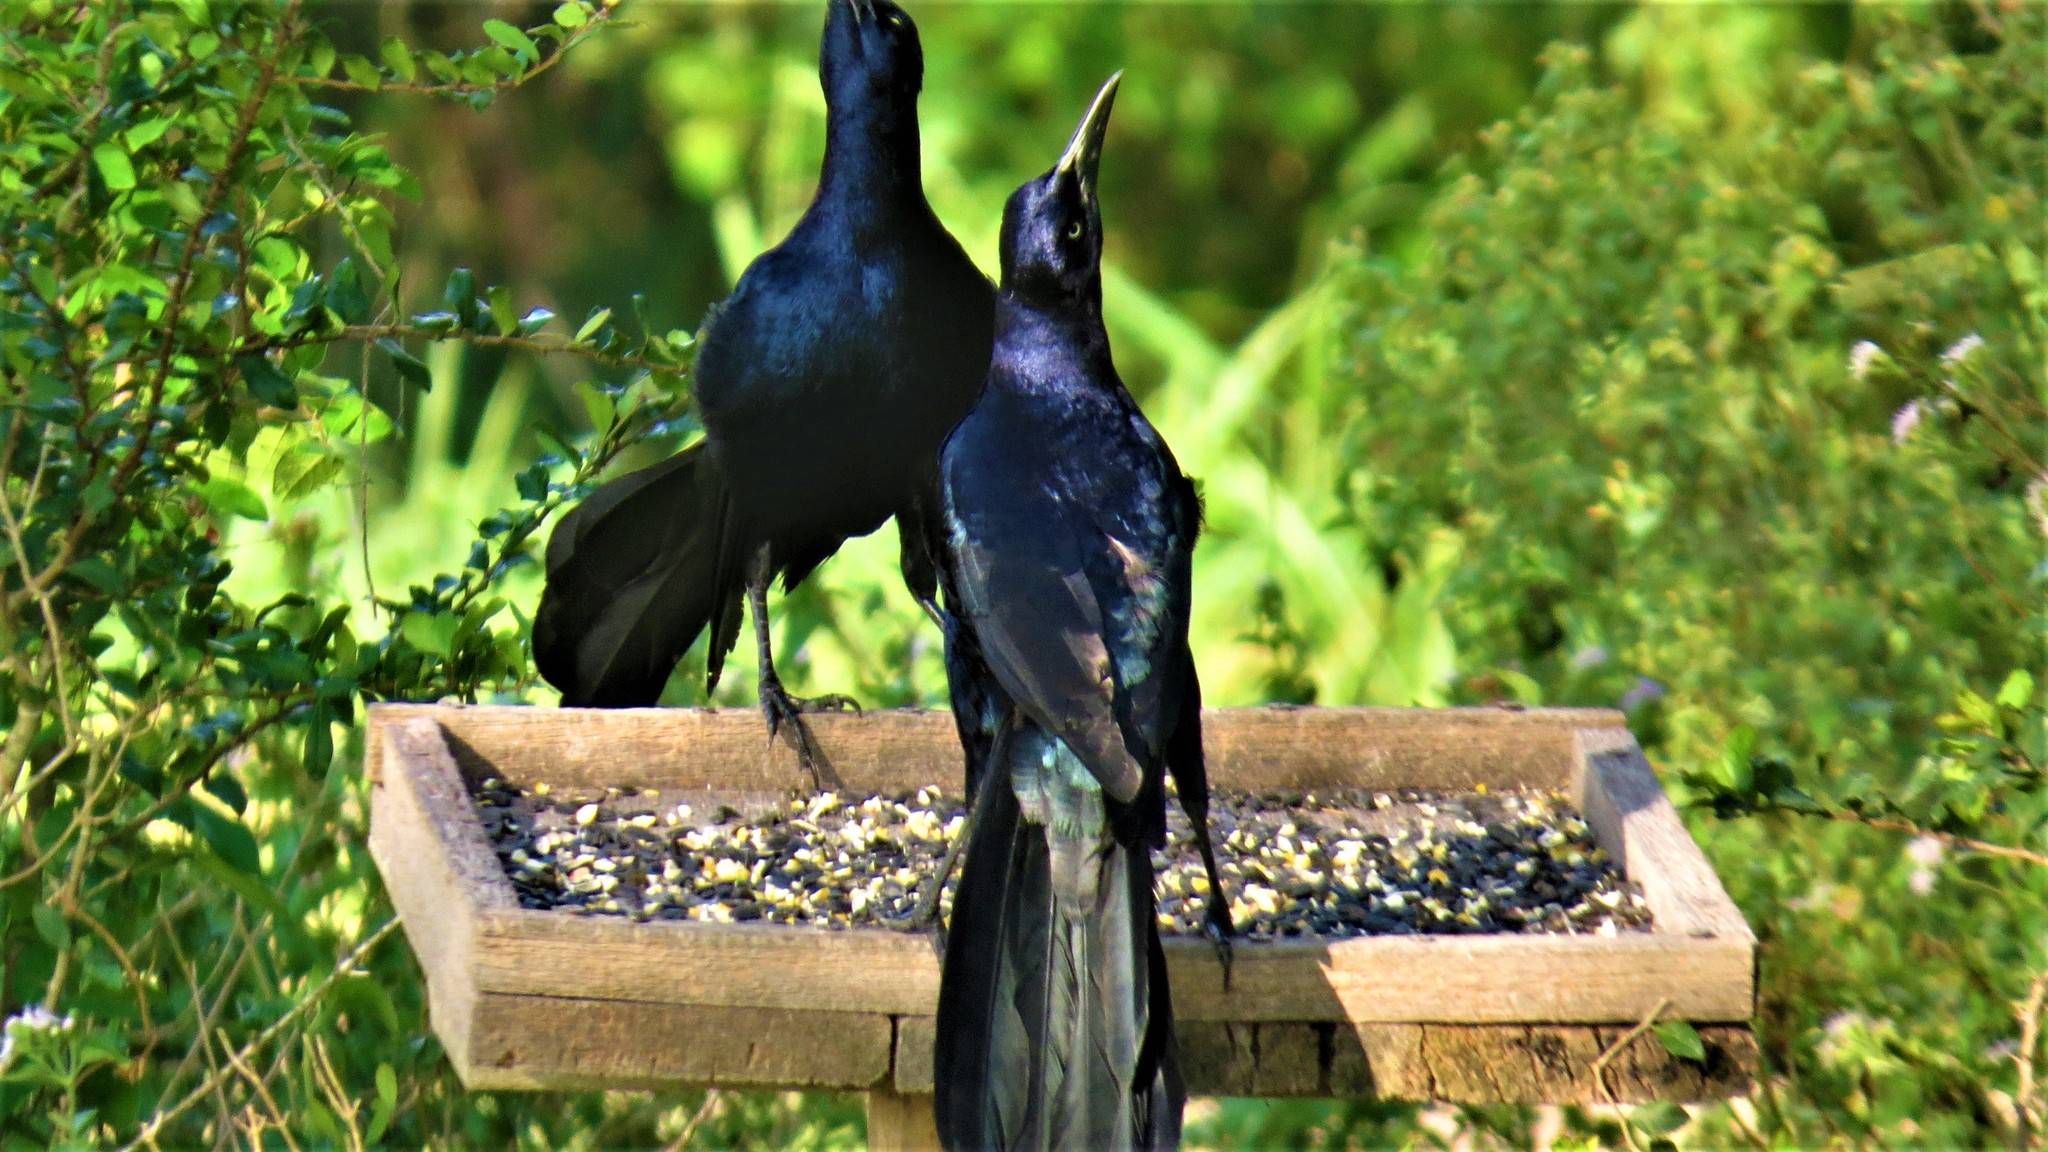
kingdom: Animalia
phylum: Chordata
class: Aves
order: Passeriformes
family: Icteridae
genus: Quiscalus
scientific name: Quiscalus mexicanus
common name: Great-tailed grackle
